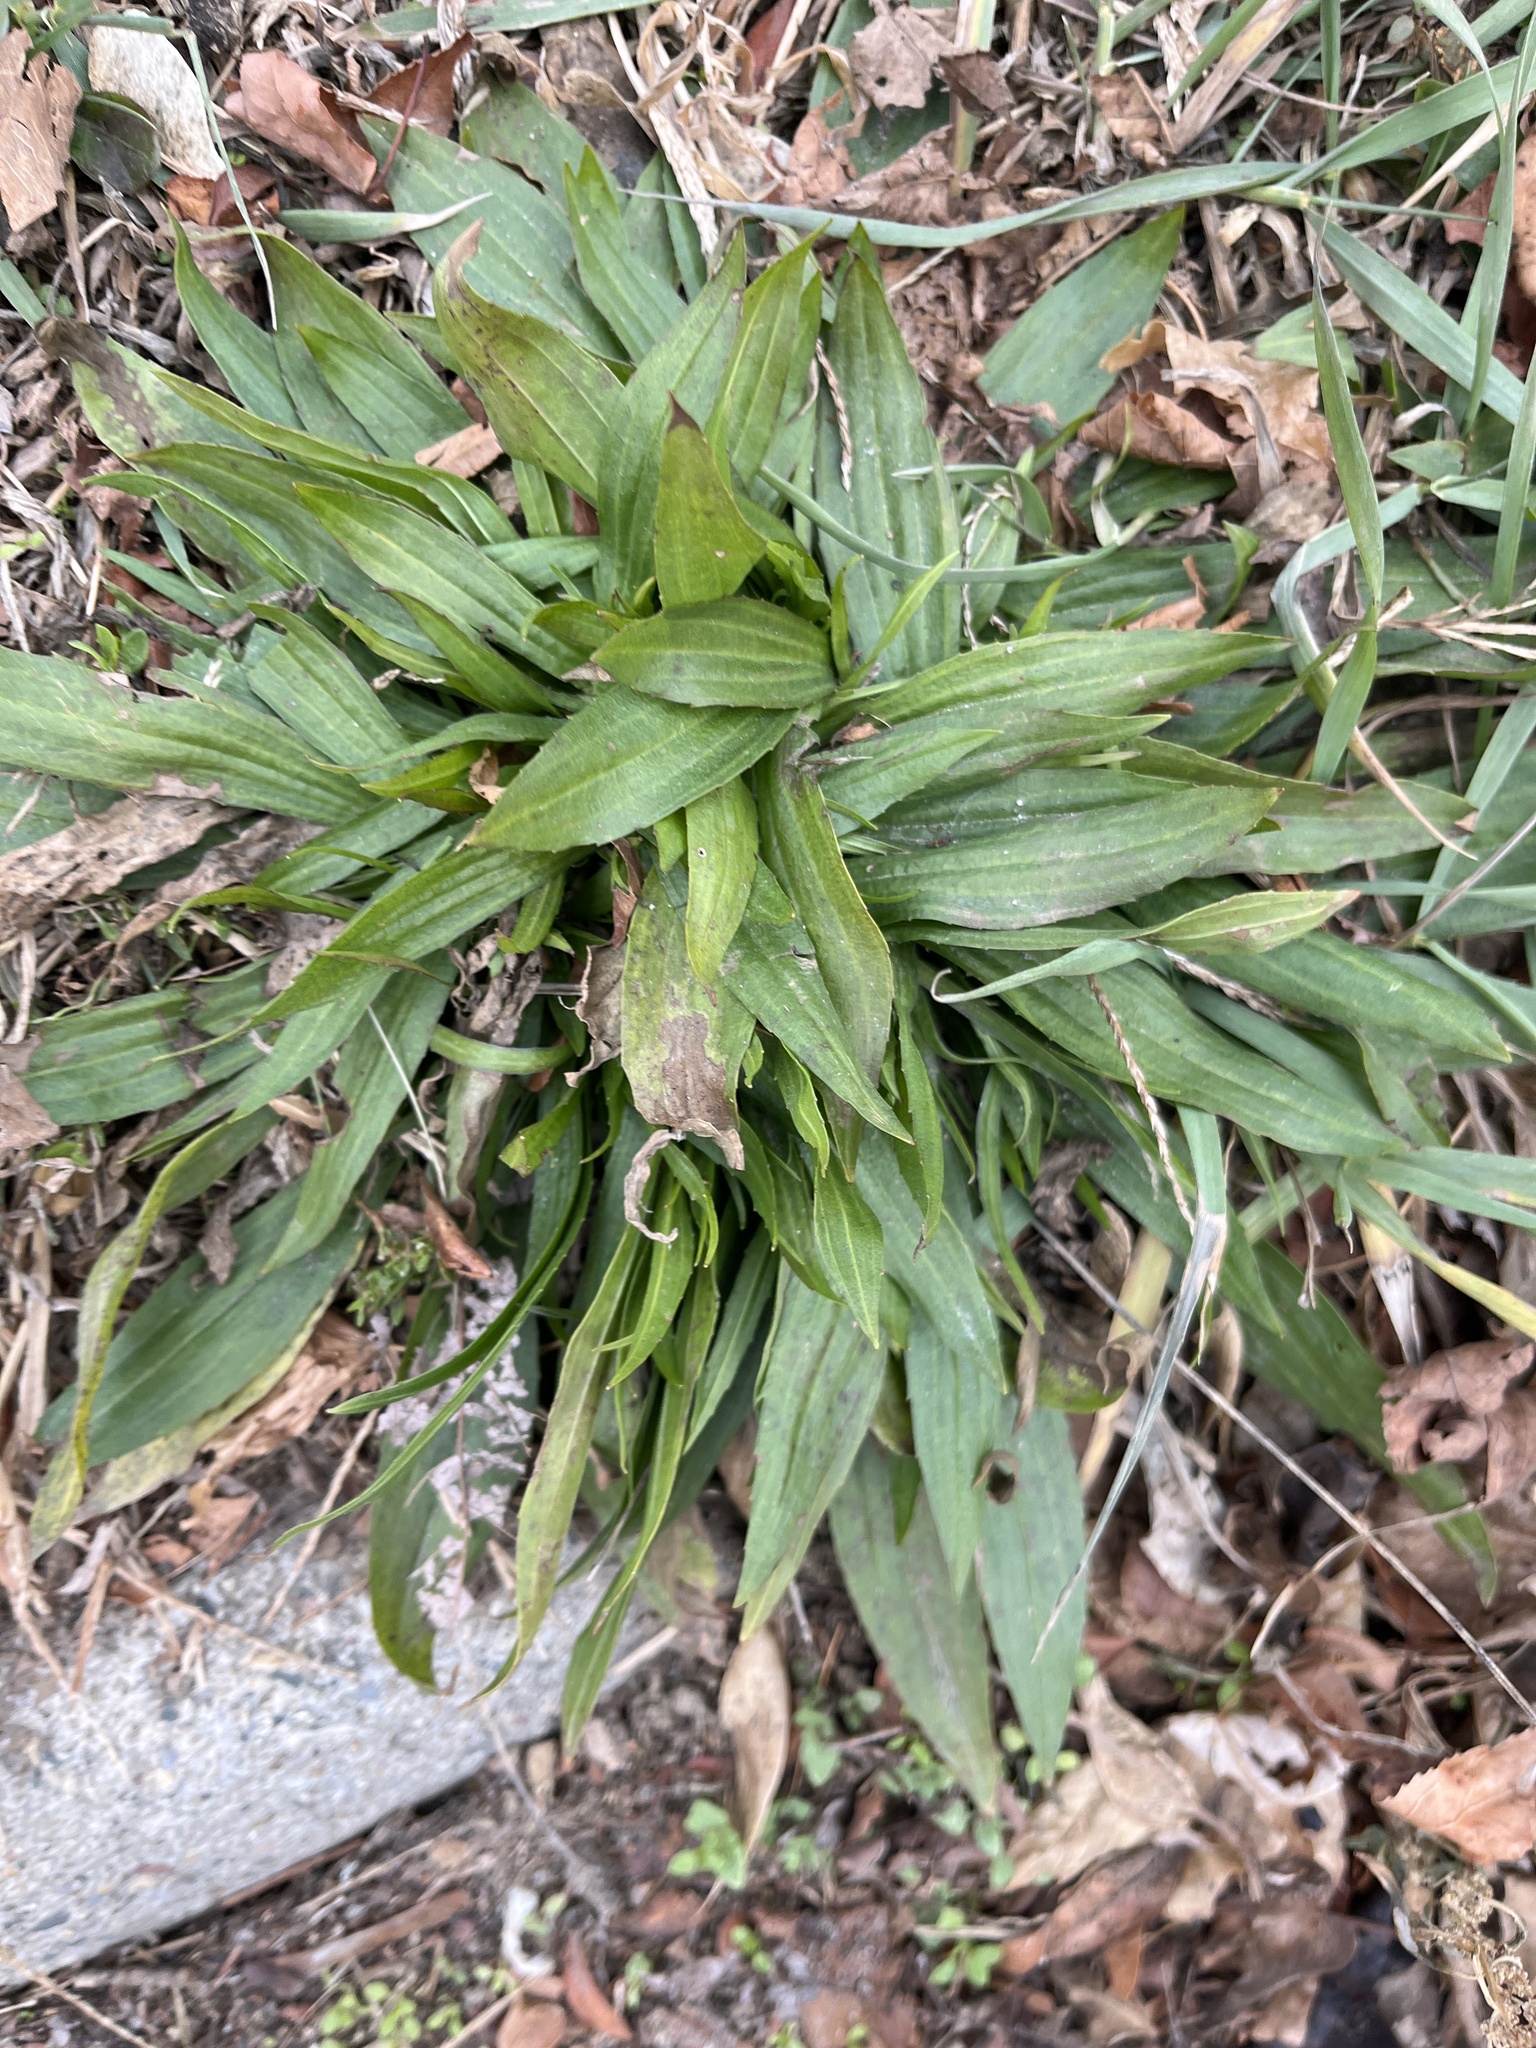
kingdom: Plantae
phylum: Tracheophyta
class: Magnoliopsida
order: Lamiales
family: Plantaginaceae
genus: Plantago
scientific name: Plantago lanceolata
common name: Ribwort plantain
